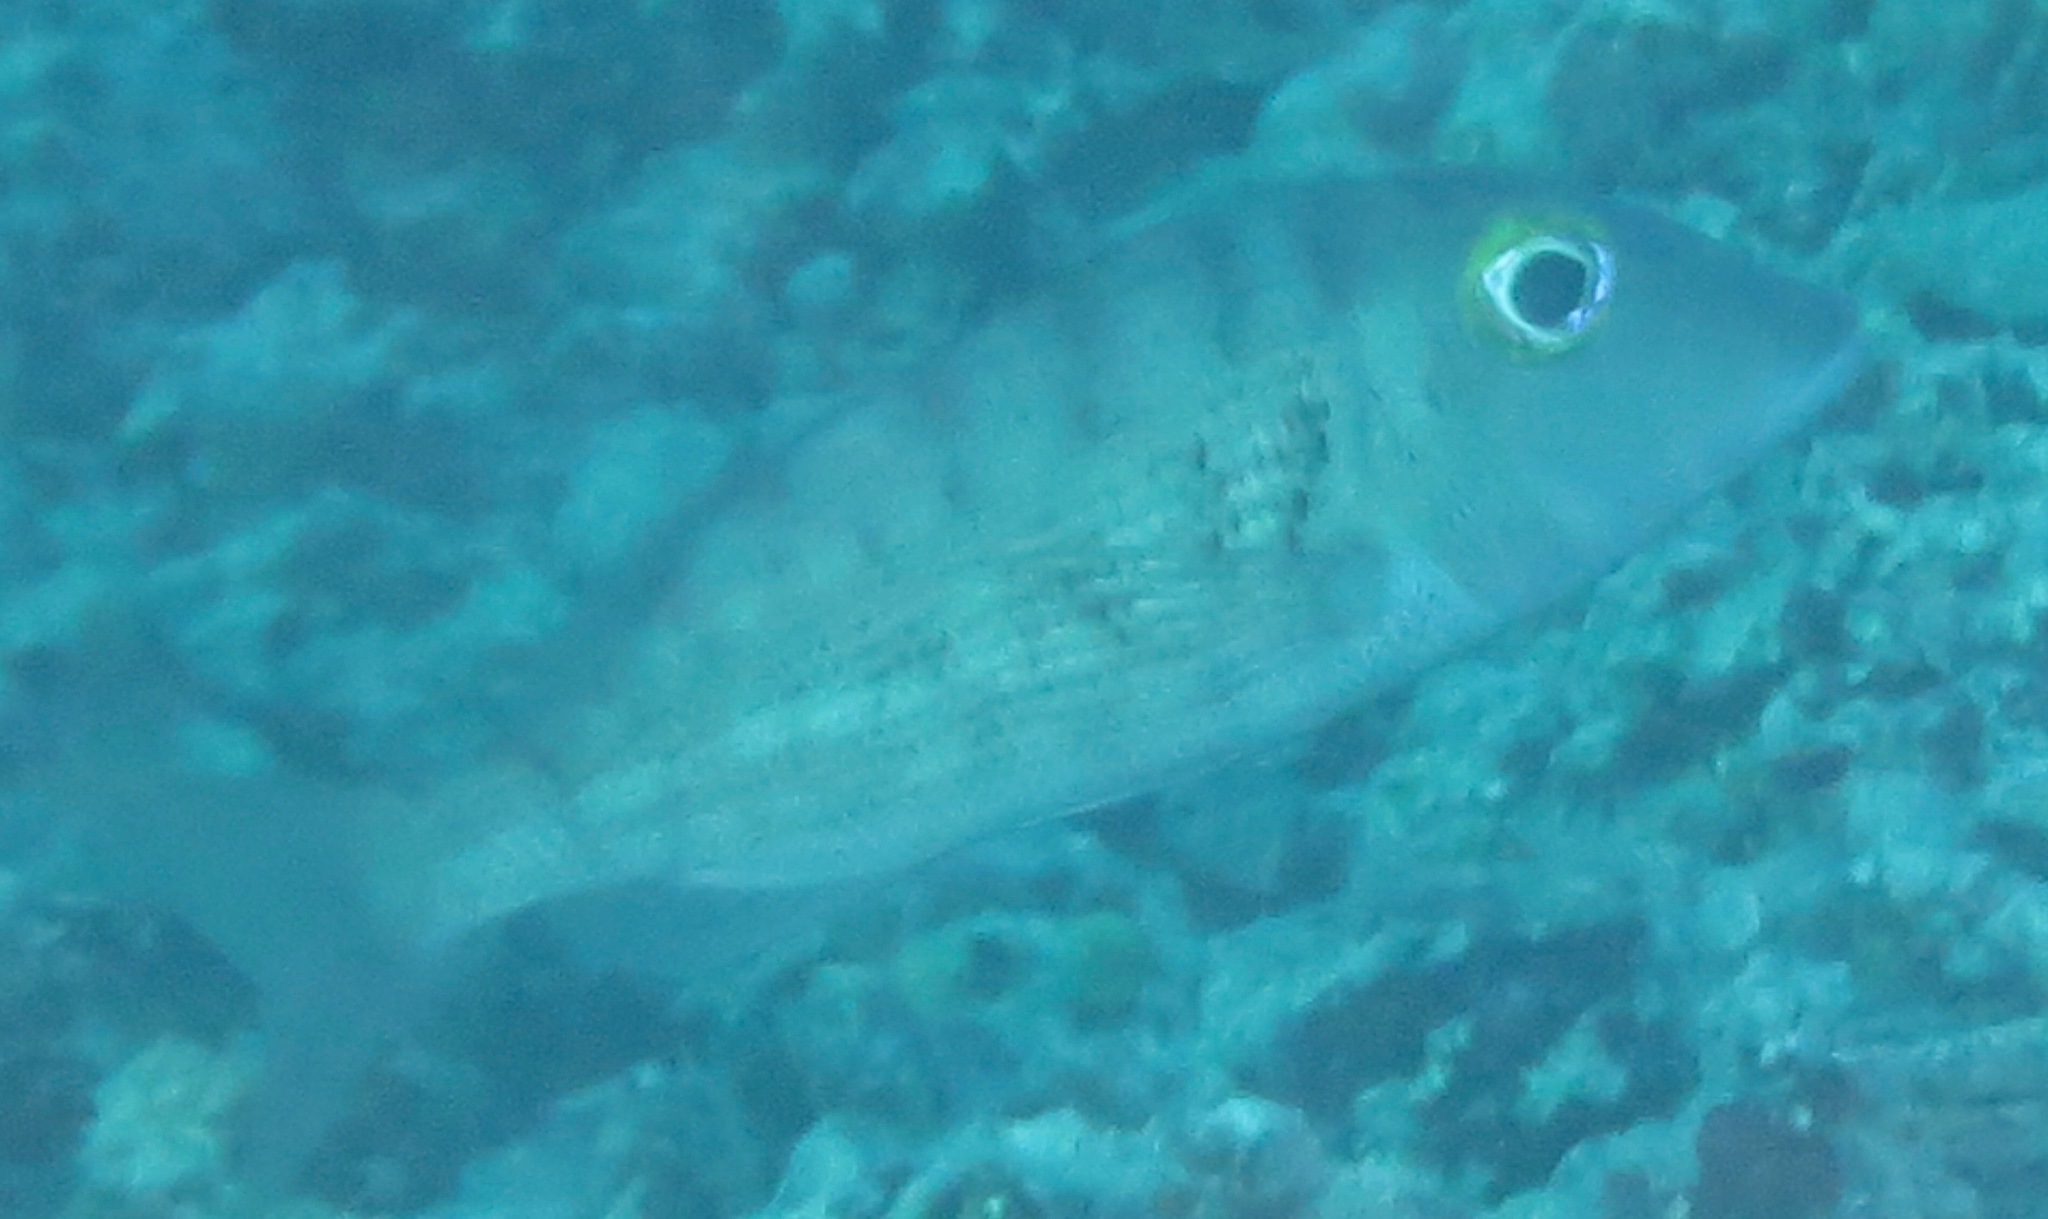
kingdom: Animalia
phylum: Chordata
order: Perciformes
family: Lethrinidae
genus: Lethrinus
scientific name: Lethrinus semicinctus
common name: Black blotch emperor
